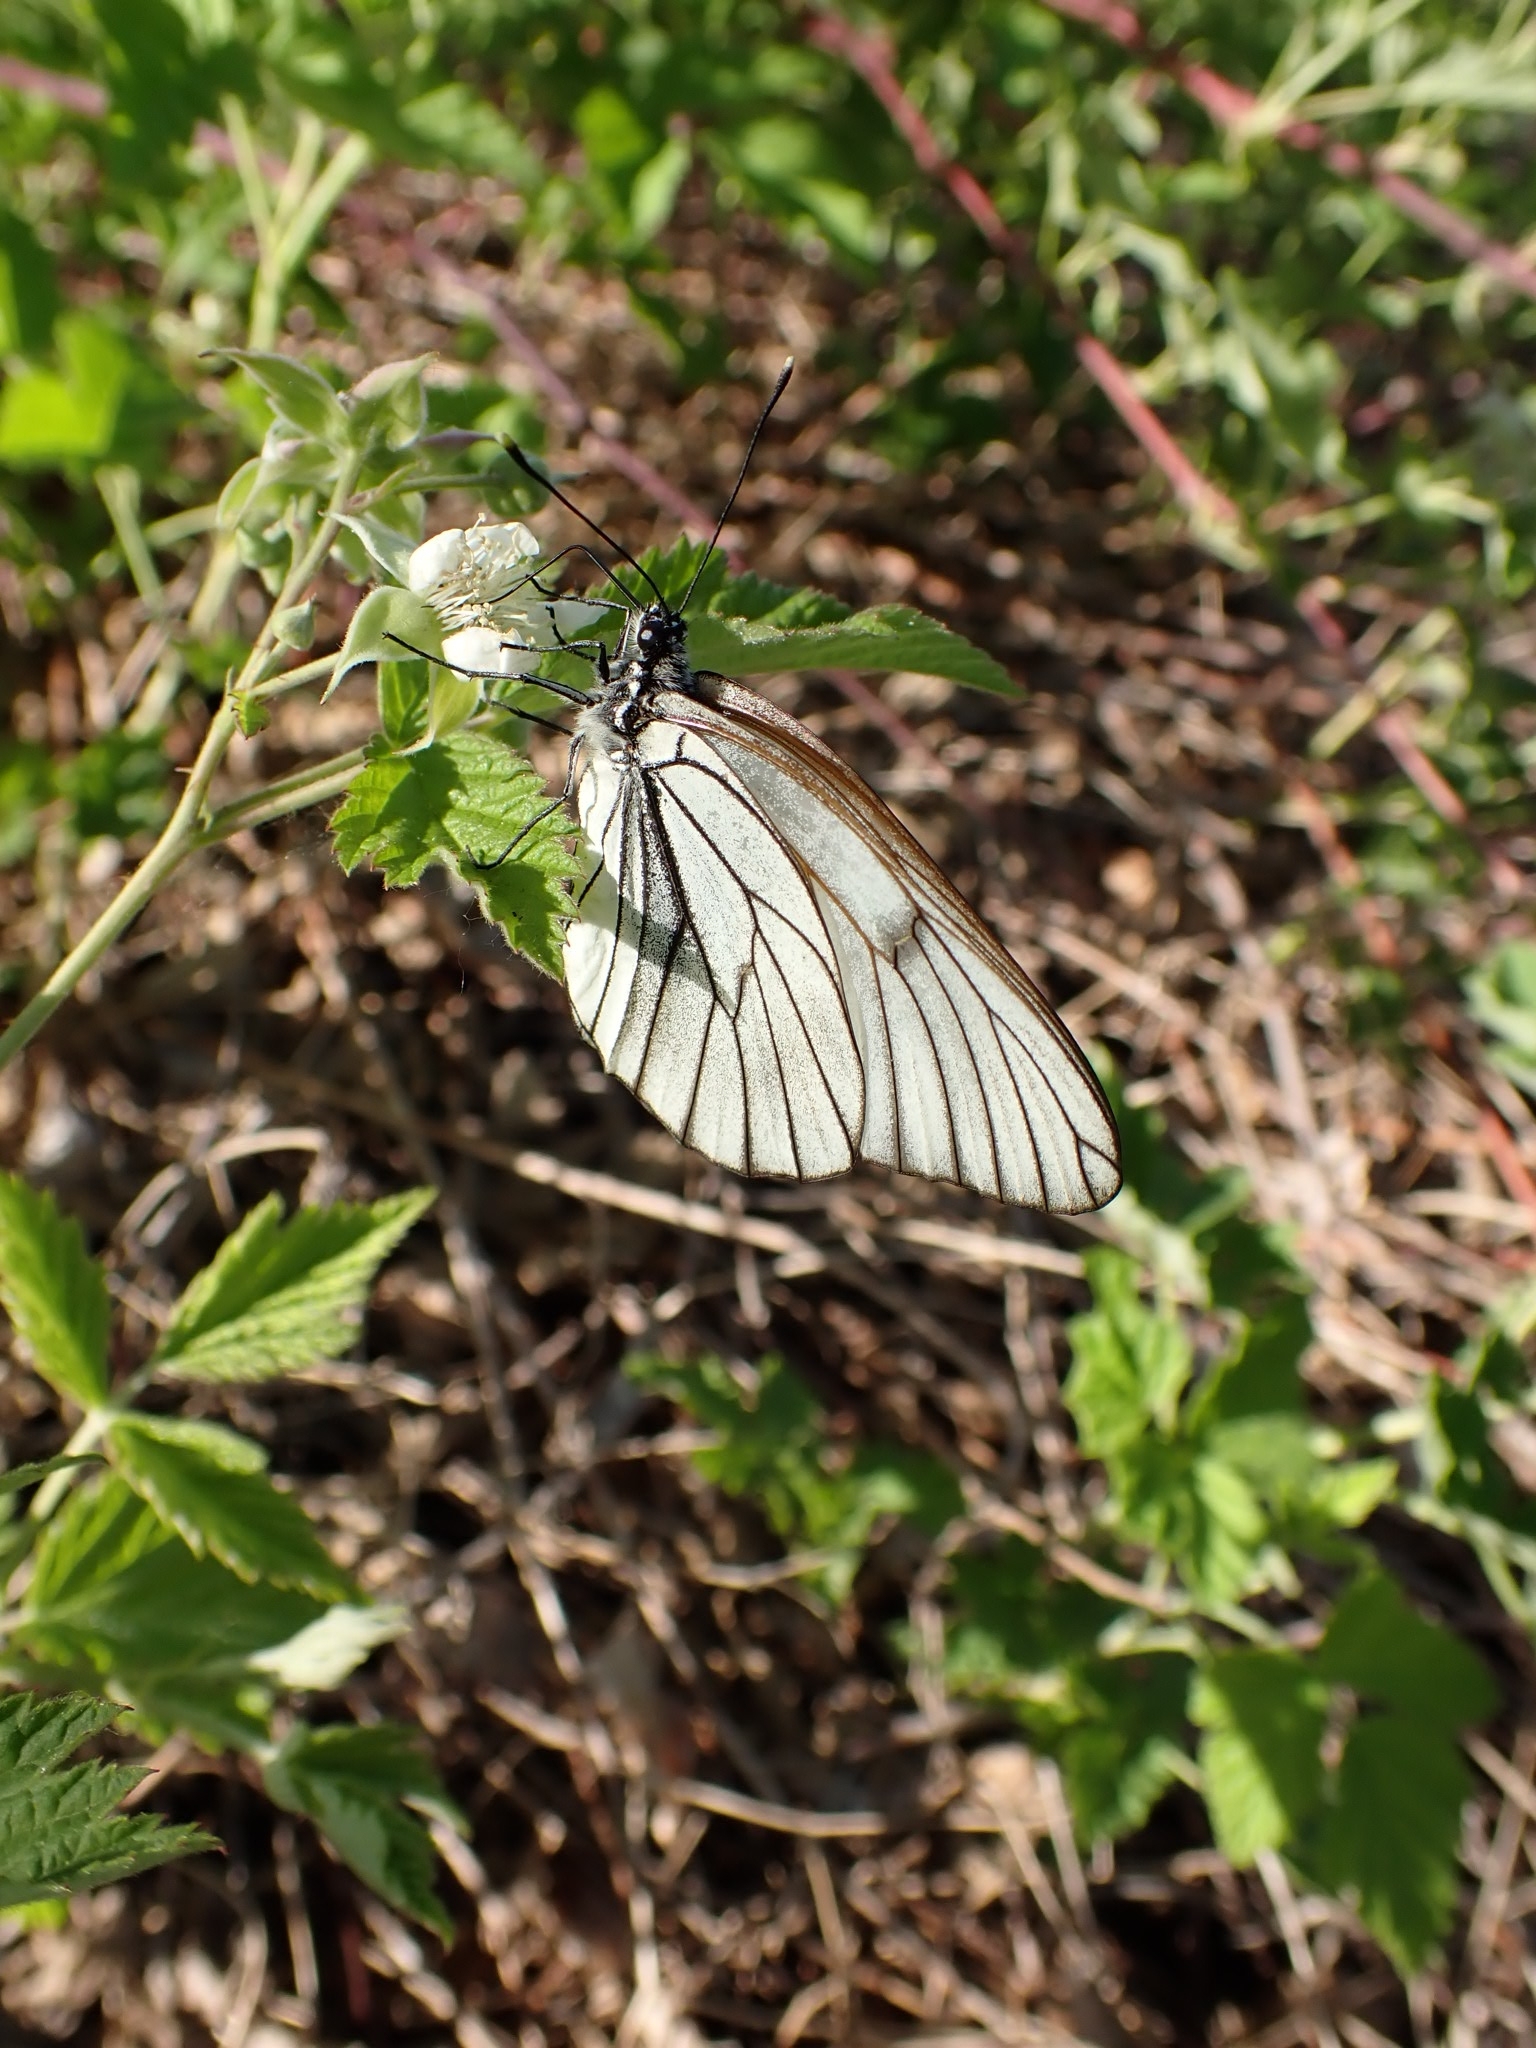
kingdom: Animalia
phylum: Arthropoda
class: Insecta
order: Lepidoptera
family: Pieridae
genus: Aporia
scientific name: Aporia crataegi
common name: Black-veined white
